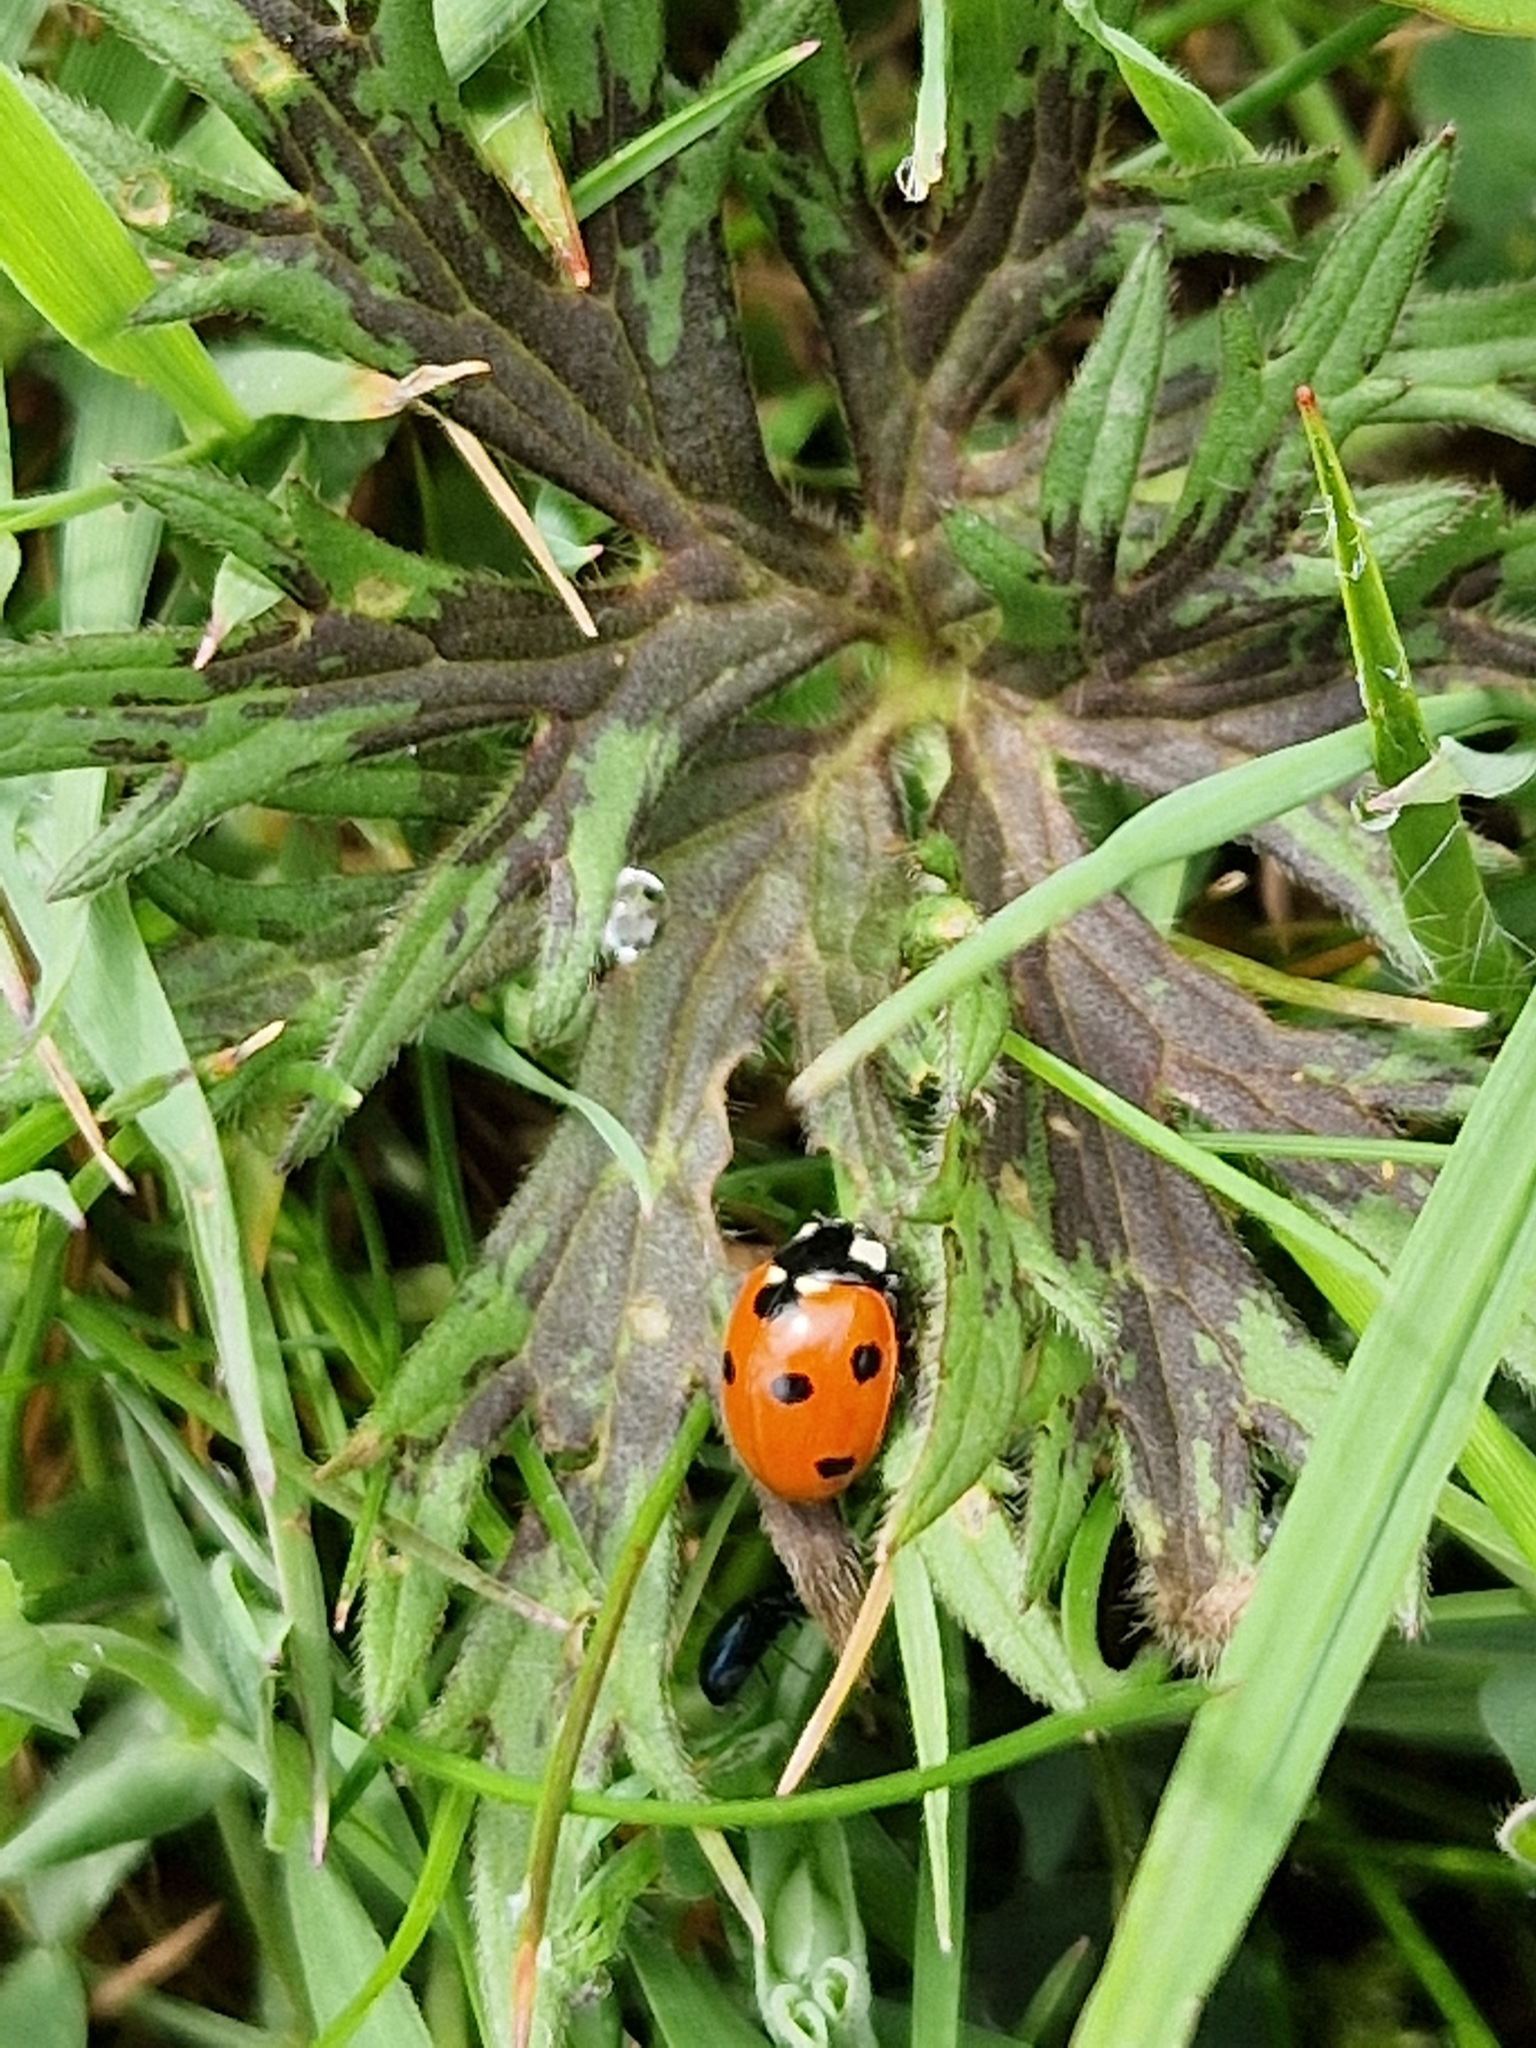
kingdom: Animalia
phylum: Arthropoda
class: Insecta
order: Coleoptera
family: Coccinellidae
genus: Coccinella
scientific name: Coccinella septempunctata
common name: Sevenspotted lady beetle
